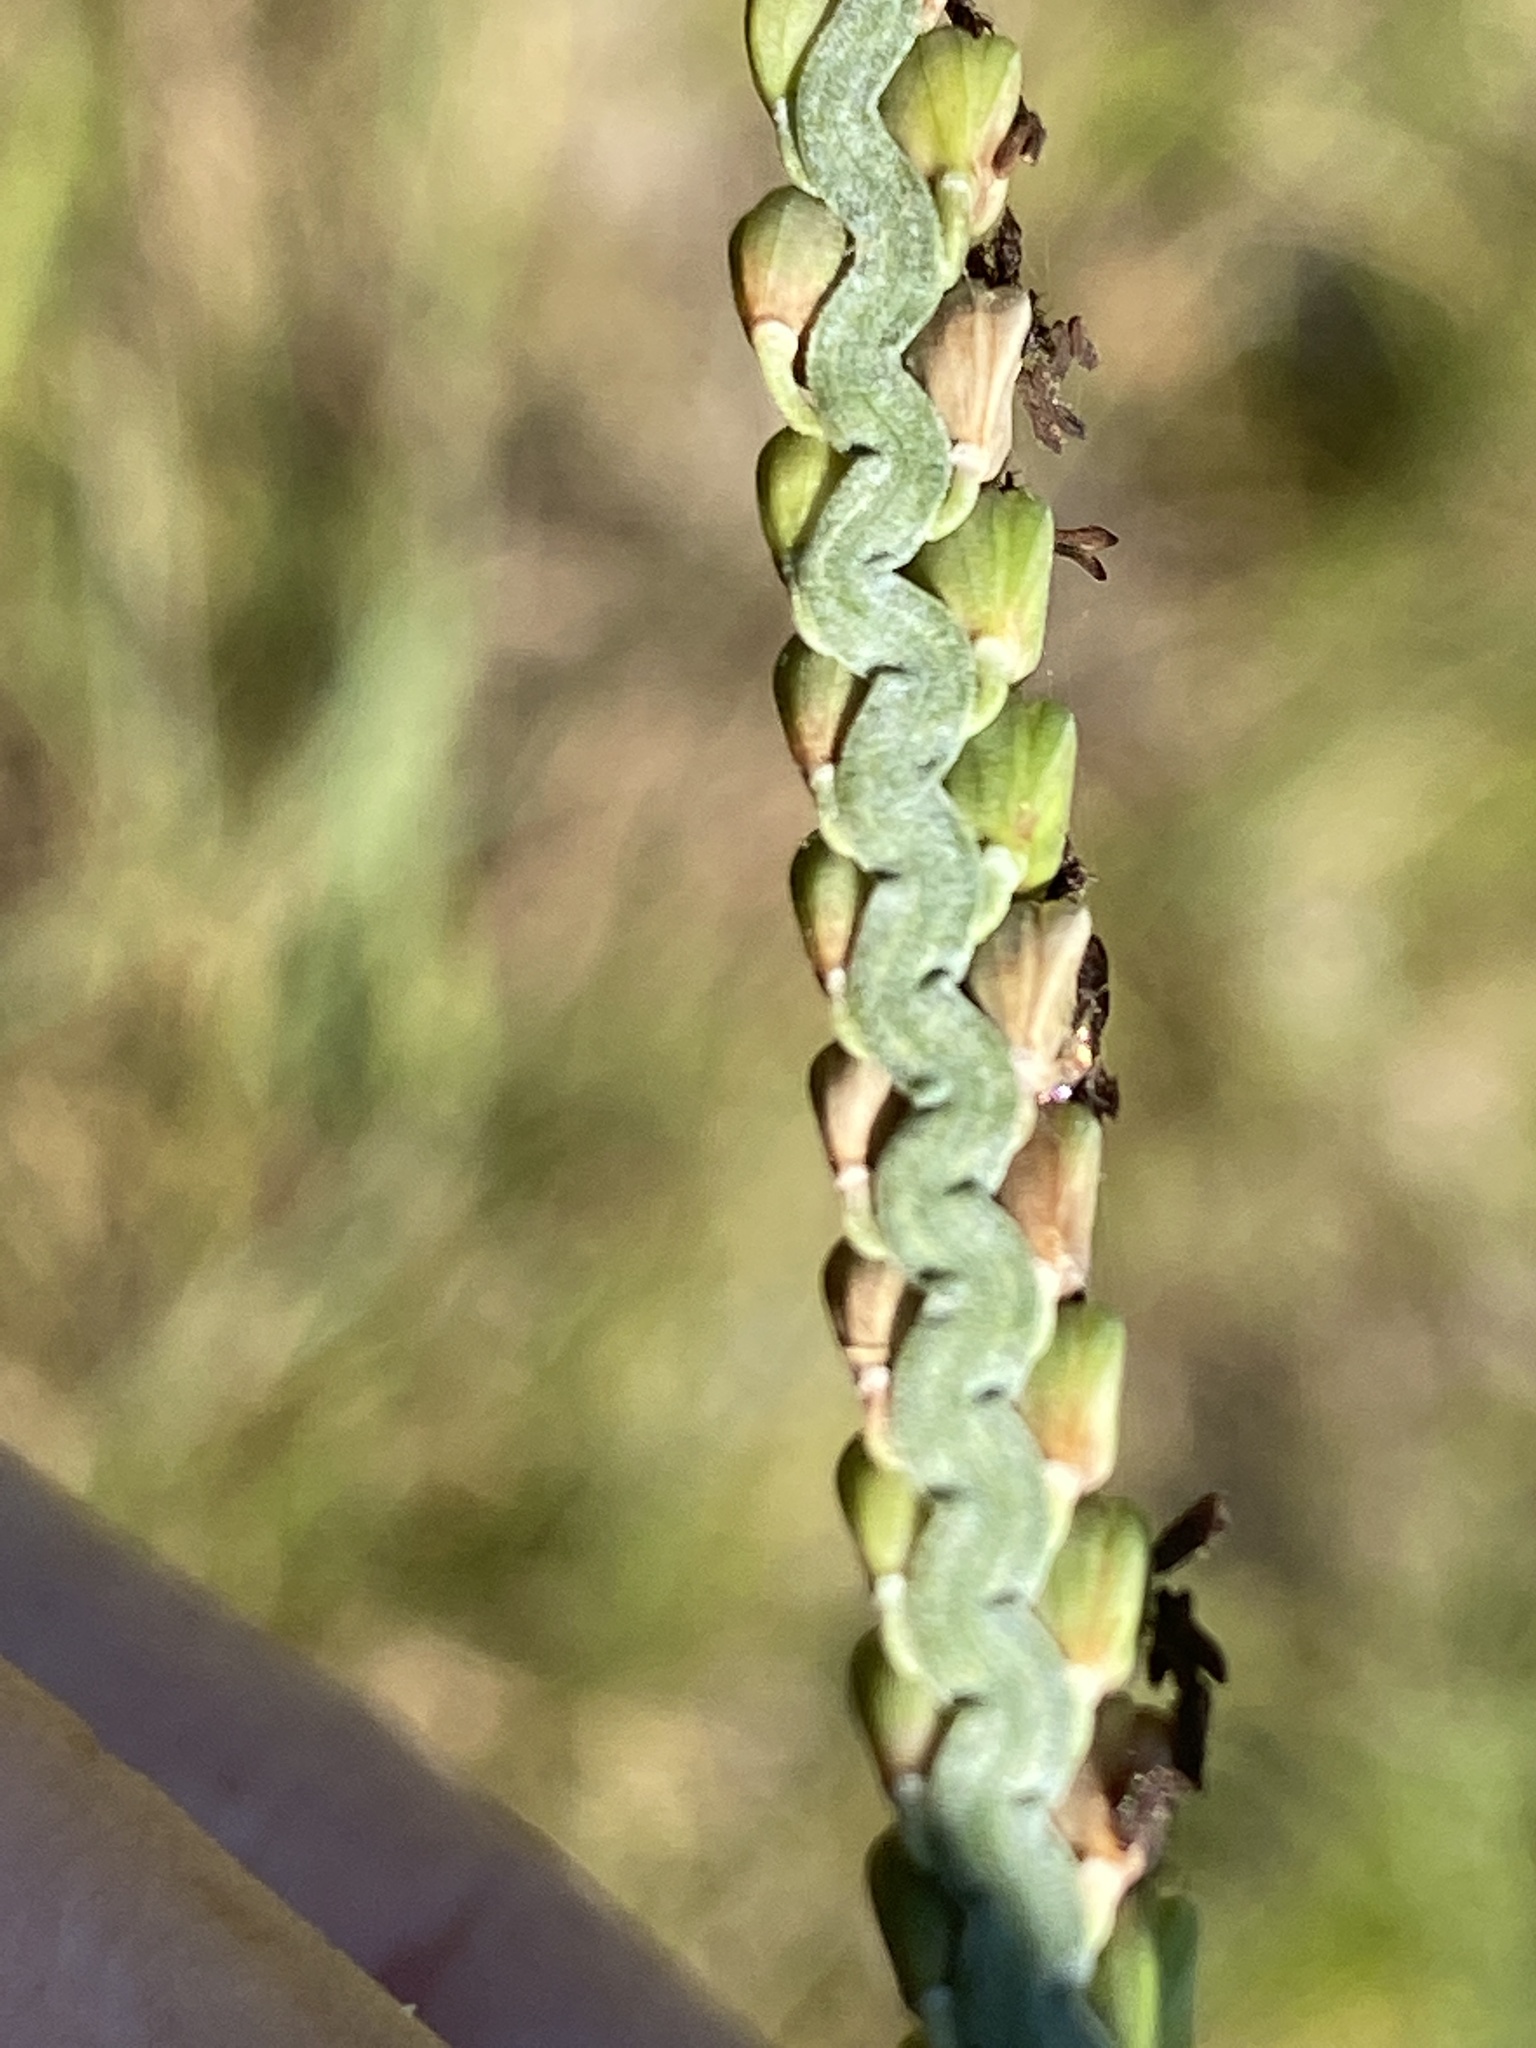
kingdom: Plantae
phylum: Tracheophyta
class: Liliopsida
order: Poales
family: Poaceae
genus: Paspalum
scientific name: Paspalum floridanum
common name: Florida paspalum
